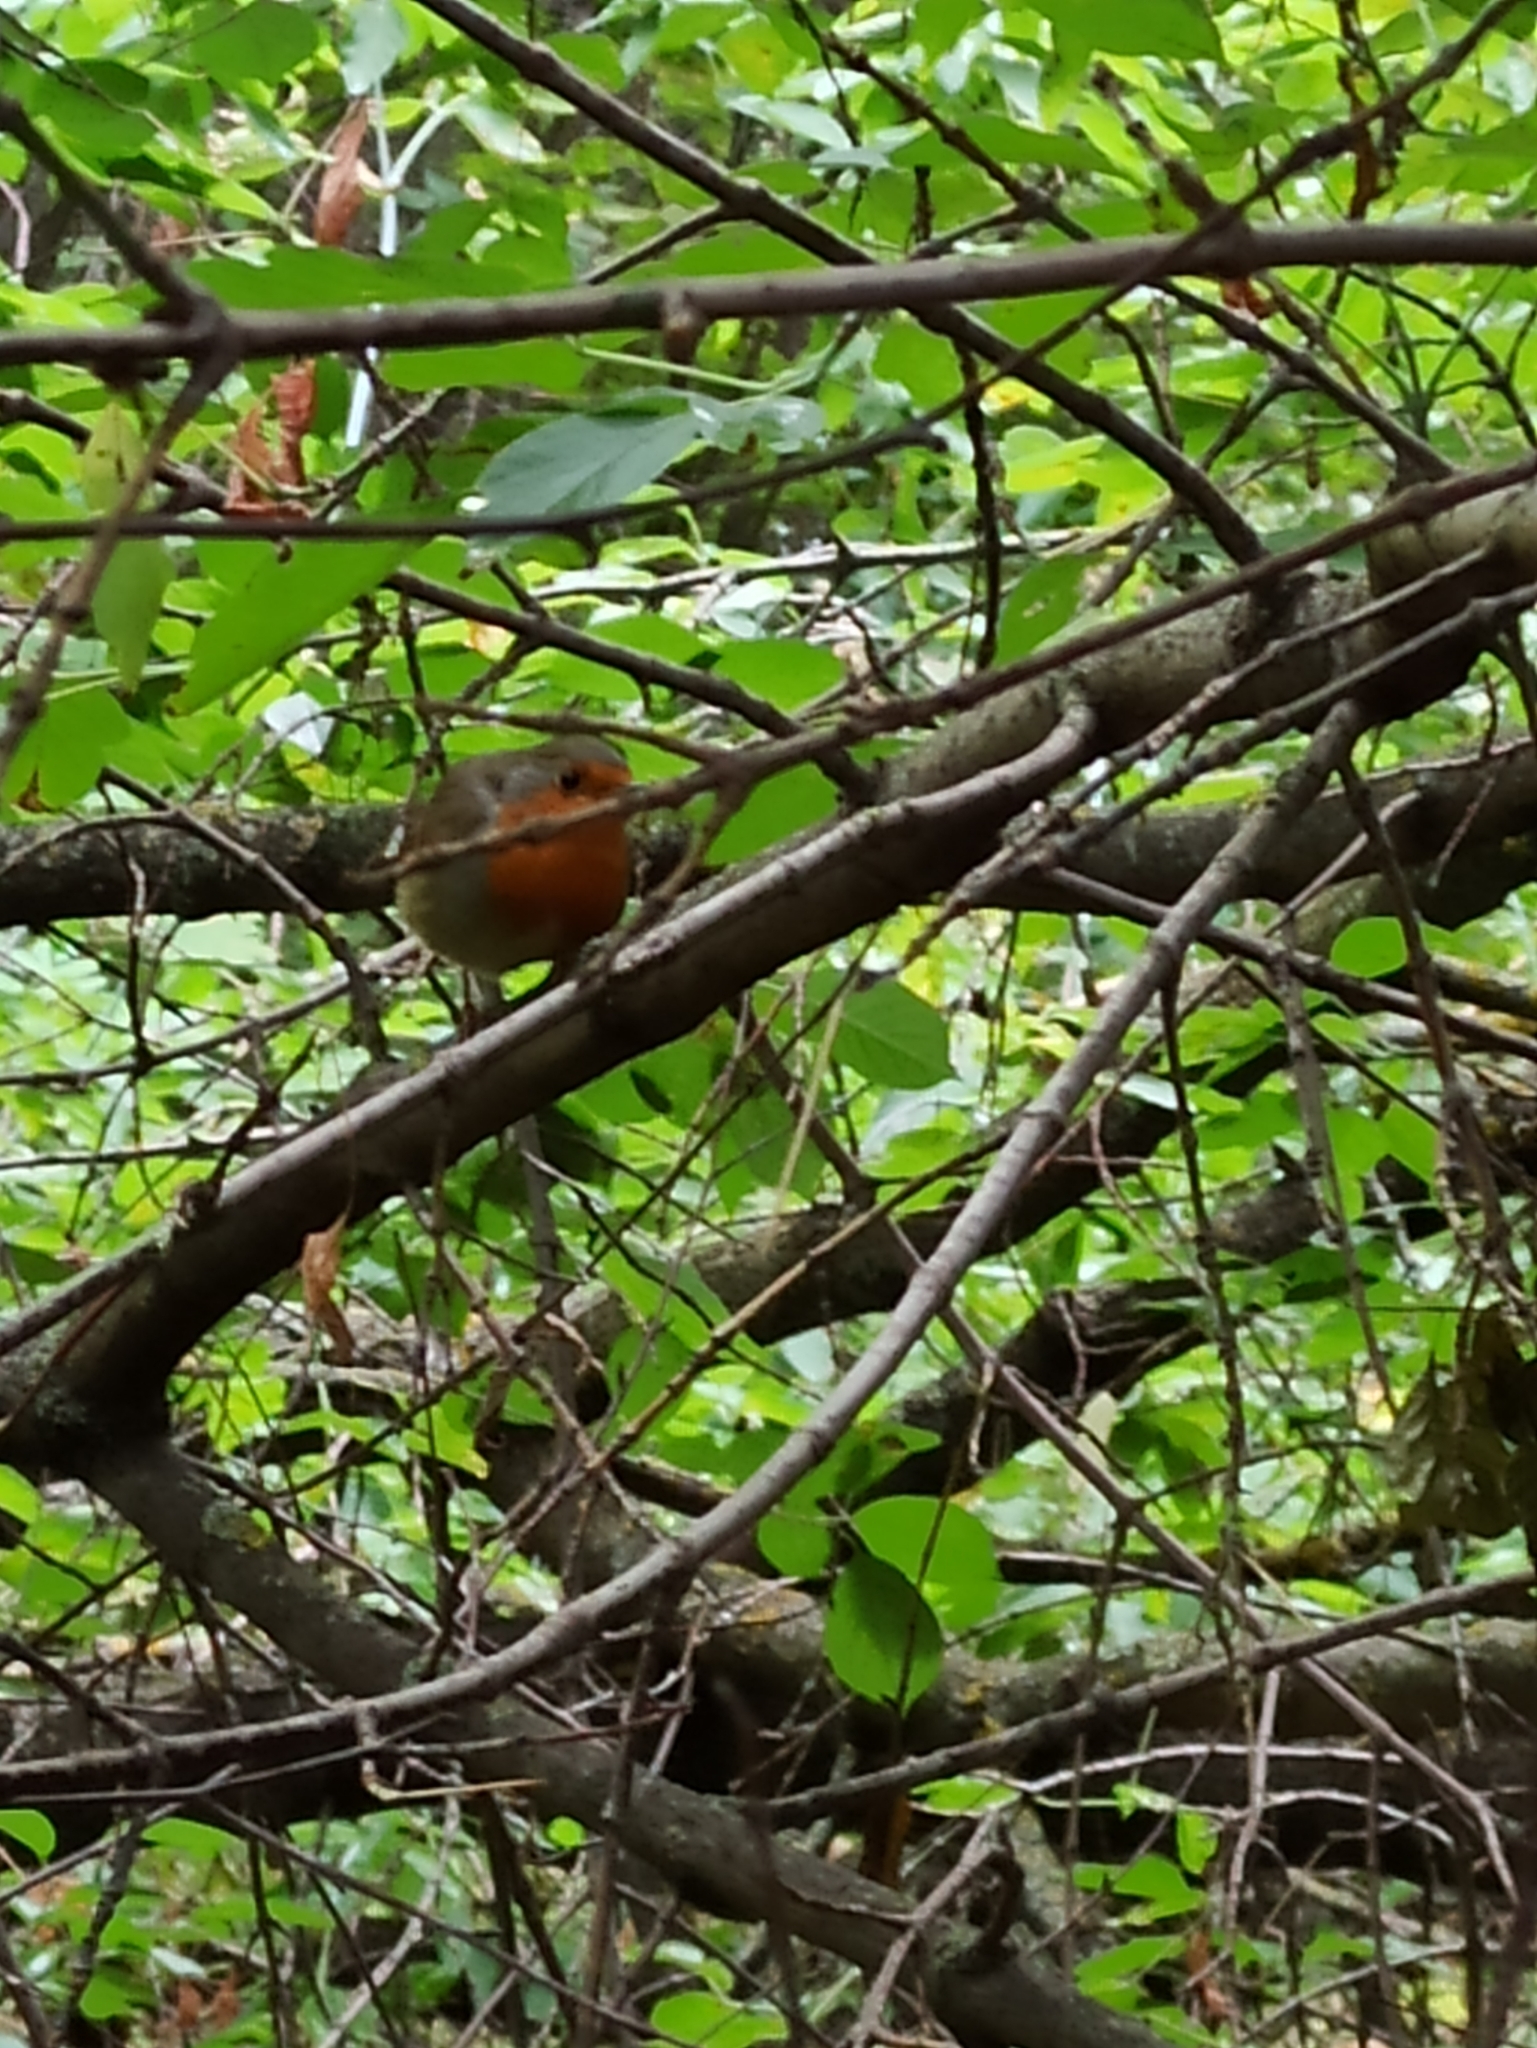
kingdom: Animalia
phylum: Chordata
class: Aves
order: Passeriformes
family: Muscicapidae
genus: Erithacus
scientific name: Erithacus rubecula
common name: European robin
